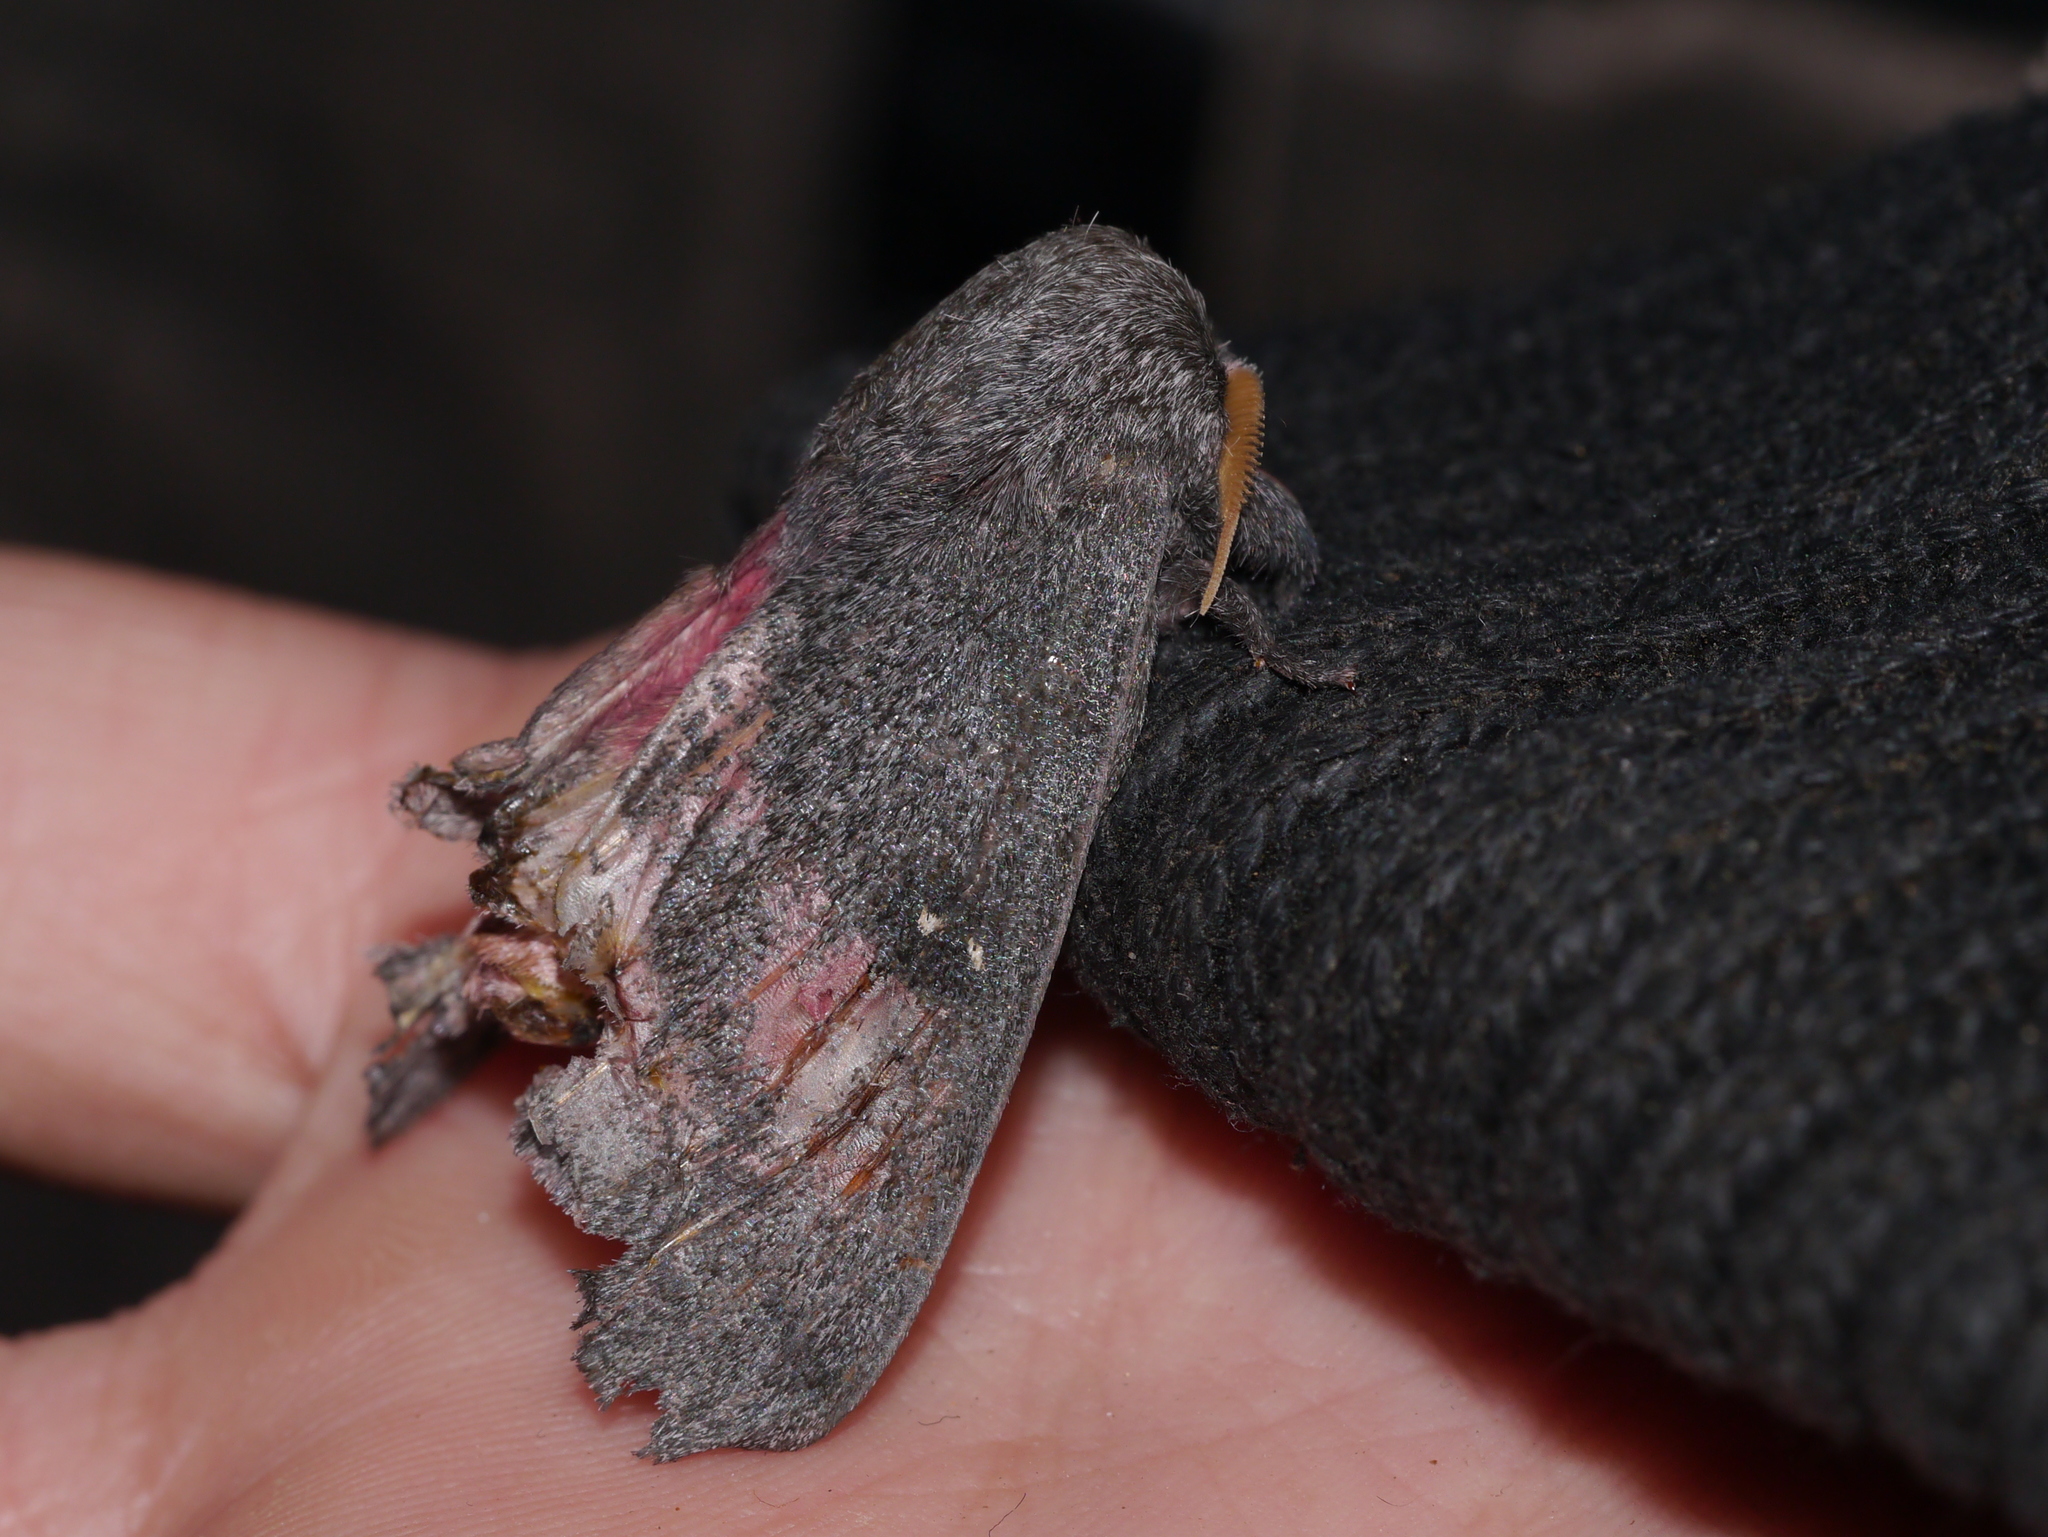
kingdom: Animalia
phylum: Arthropoda
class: Insecta
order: Lepidoptera
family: Saturniidae
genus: Syssphinx
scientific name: Syssphinx hubbardi
